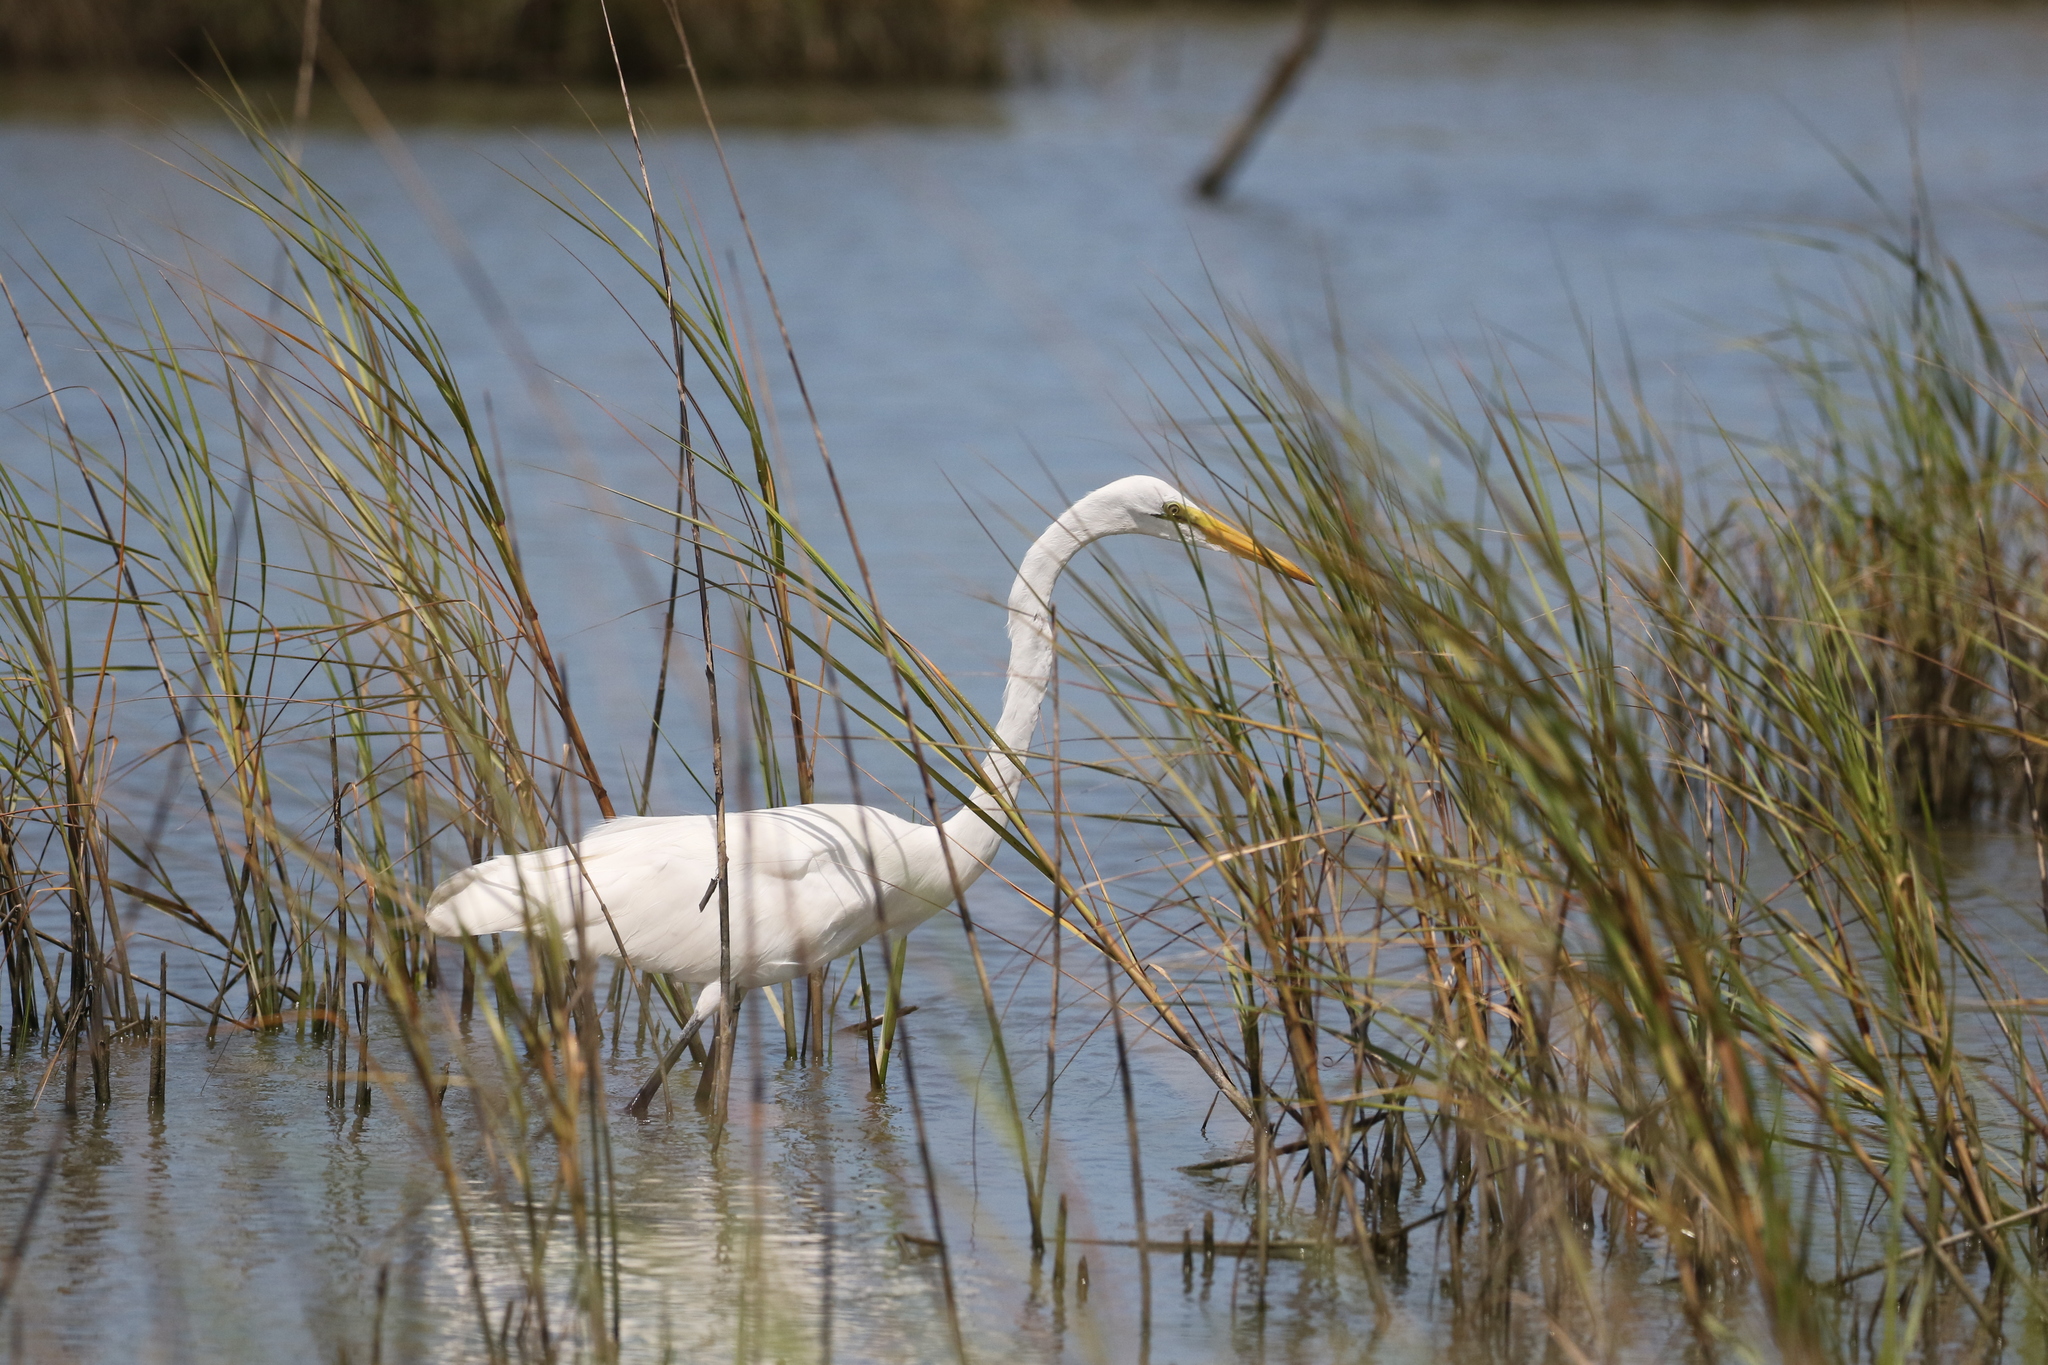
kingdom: Animalia
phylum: Chordata
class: Aves
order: Pelecaniformes
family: Ardeidae
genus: Ardea
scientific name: Ardea alba
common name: Great egret
